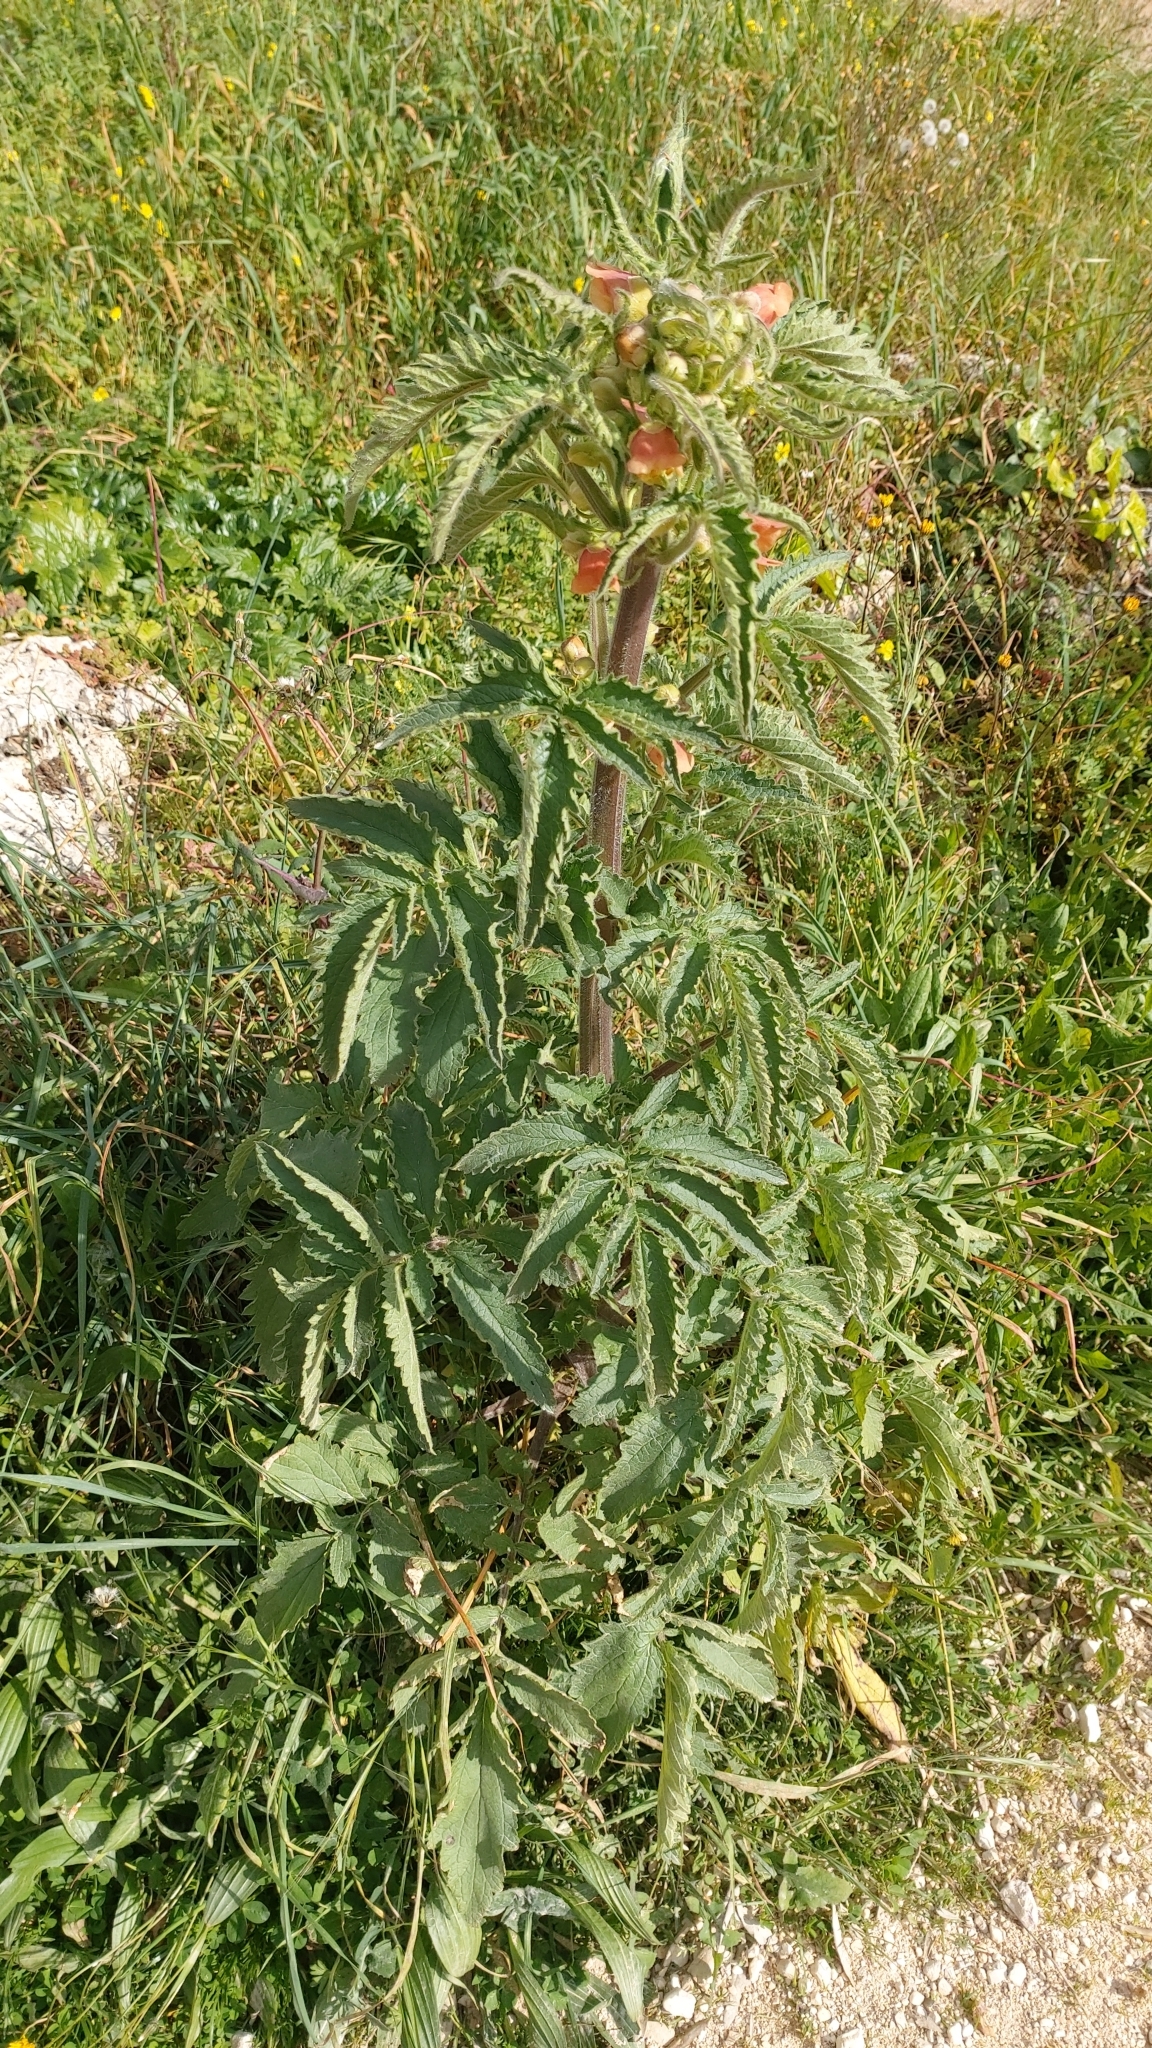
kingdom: Plantae
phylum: Tracheophyta
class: Magnoliopsida
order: Lamiales
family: Scrophulariaceae
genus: Scrophularia
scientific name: Scrophularia grandiflora
